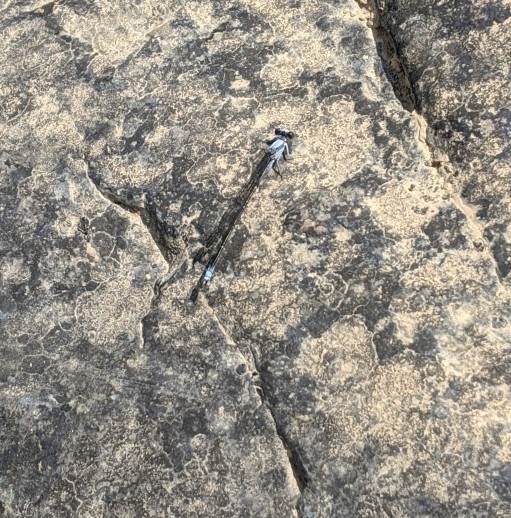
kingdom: Animalia
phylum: Arthropoda
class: Insecta
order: Odonata
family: Coenagrionidae
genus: Argia
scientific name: Argia moesta
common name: Powdered dancer
